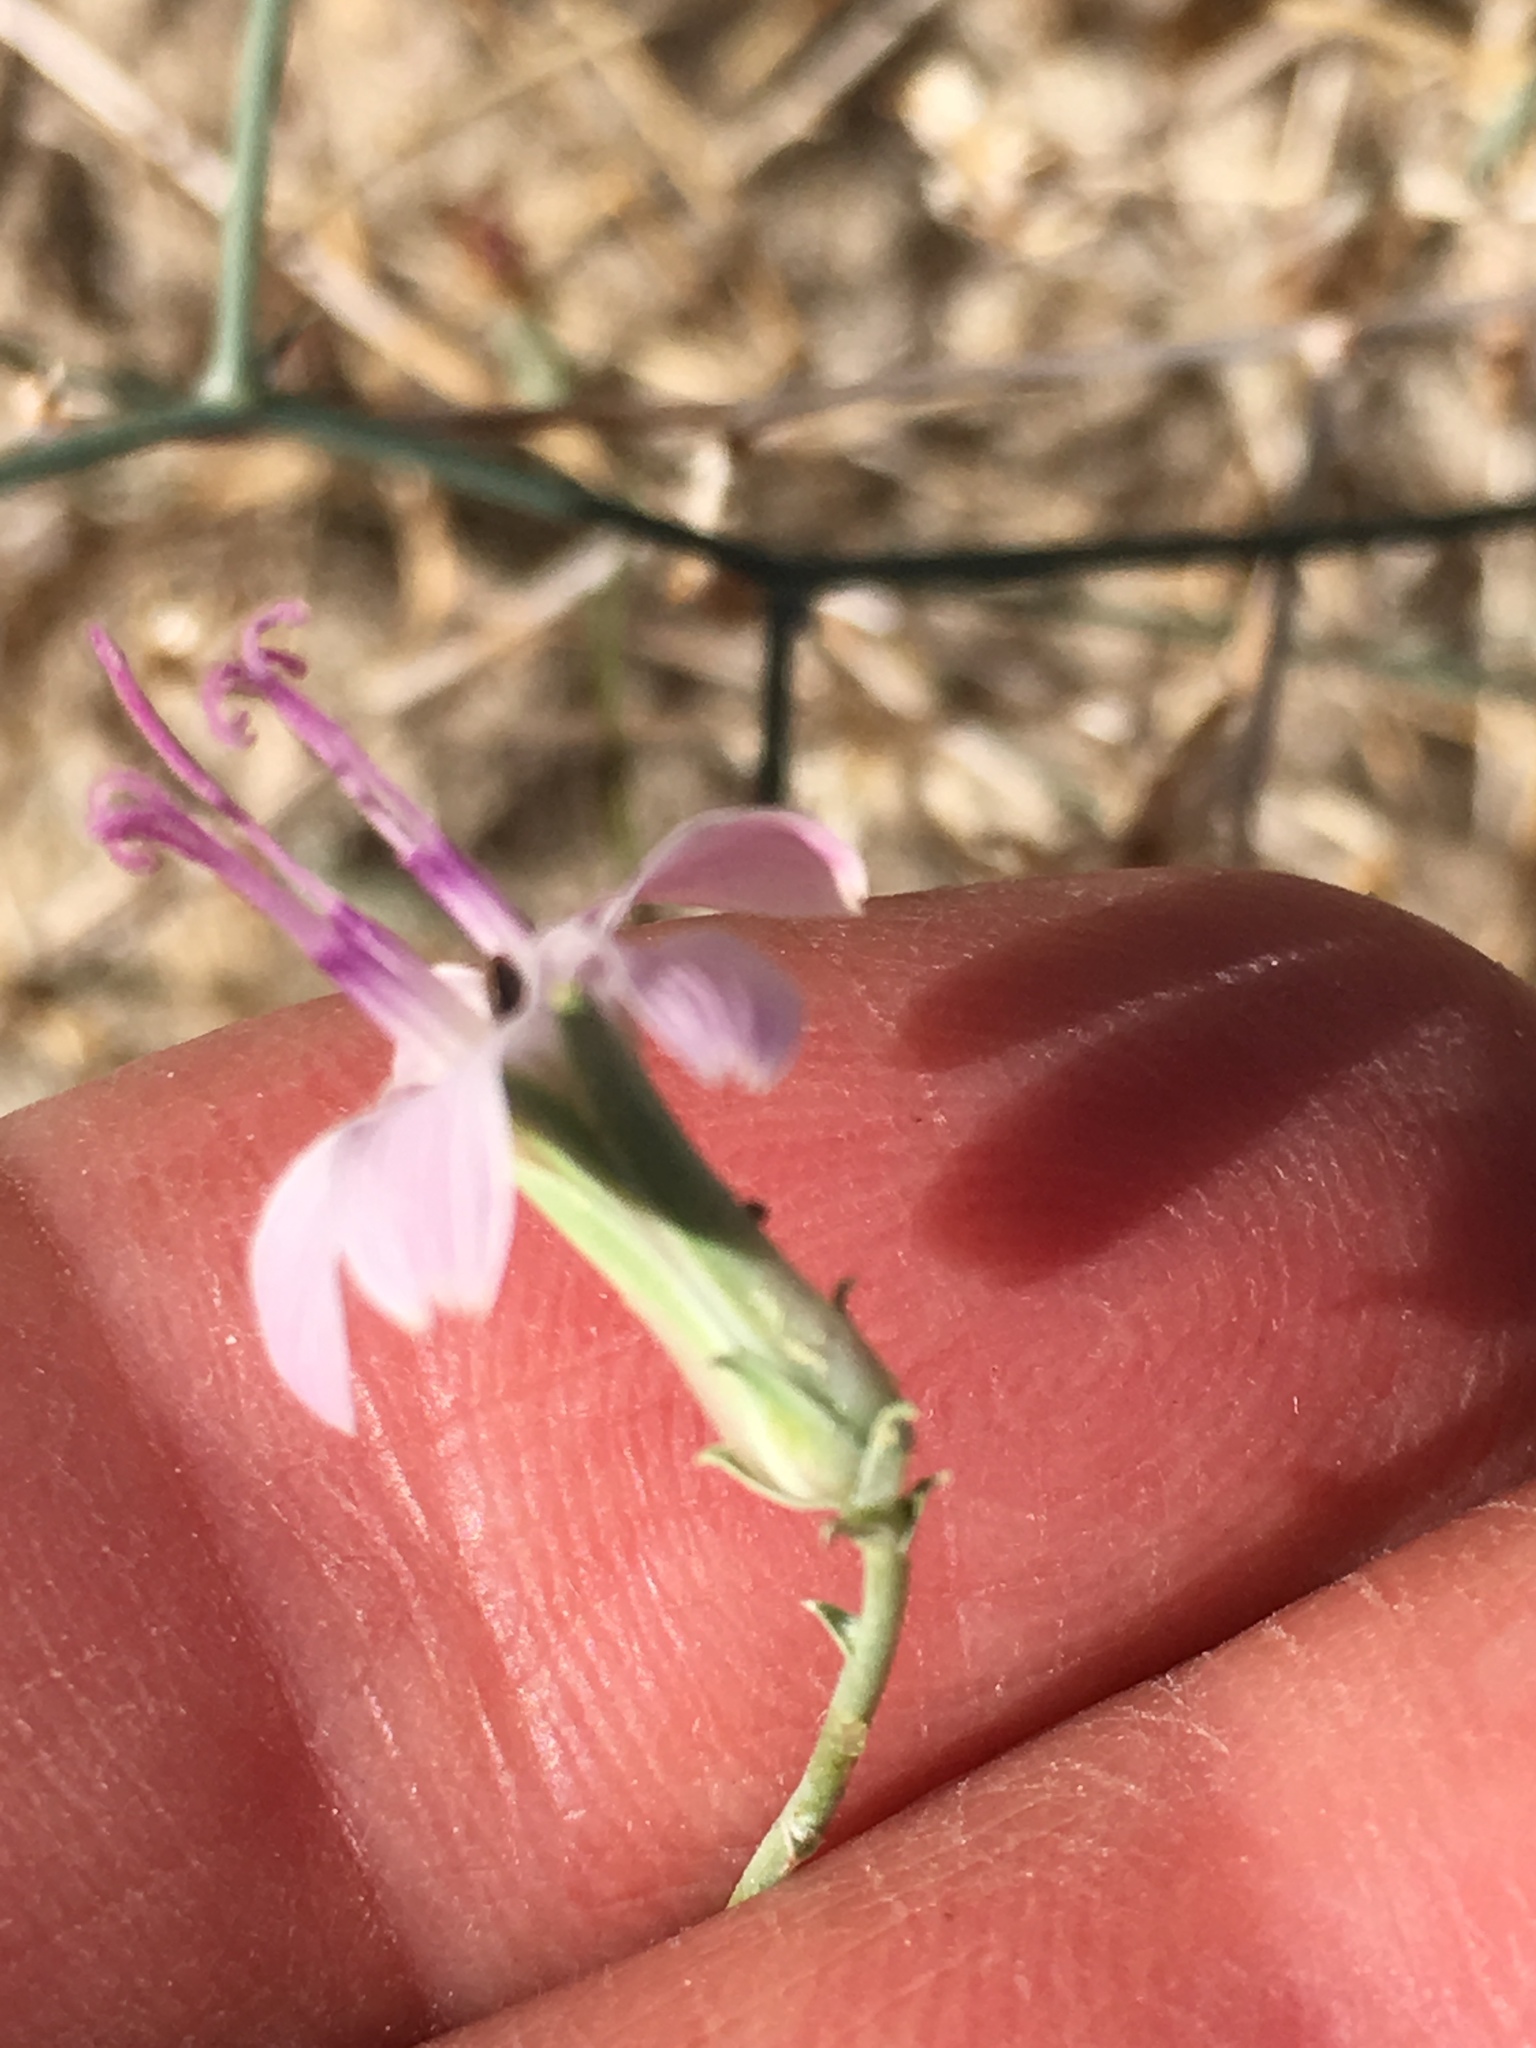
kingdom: Plantae
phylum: Tracheophyta
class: Magnoliopsida
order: Asterales
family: Asteraceae
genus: Stephanomeria
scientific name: Stephanomeria pauciflora
